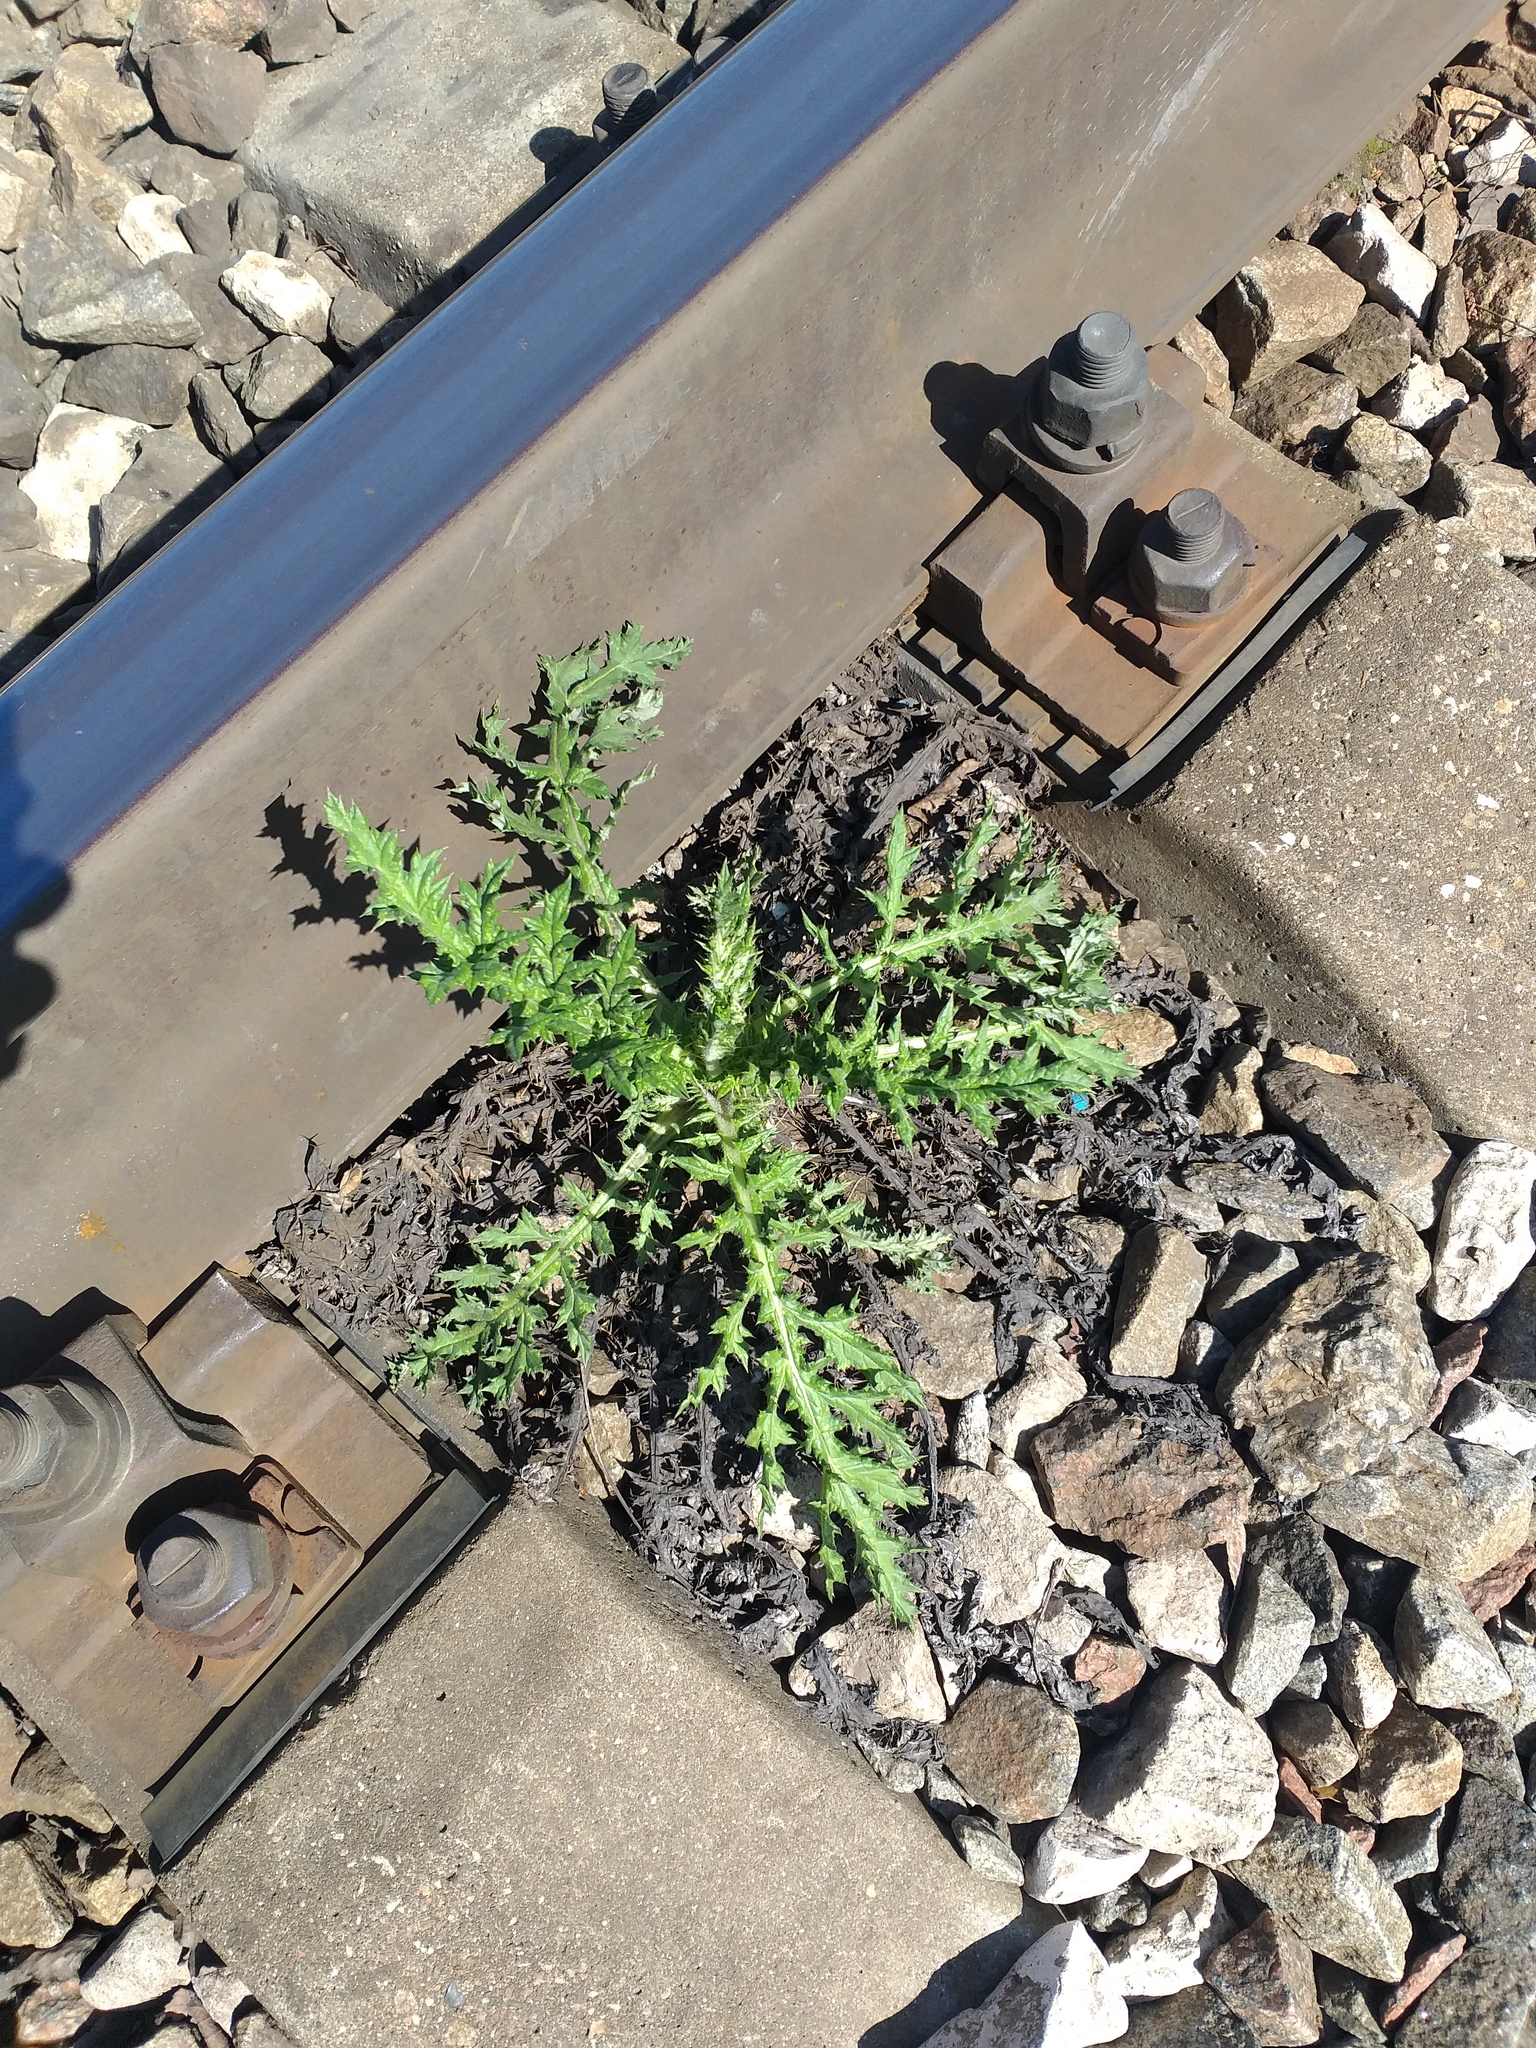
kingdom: Plantae
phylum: Tracheophyta
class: Magnoliopsida
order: Asterales
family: Asteraceae
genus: Echinops
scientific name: Echinops sphaerocephalus
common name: Glandular globe-thistle
